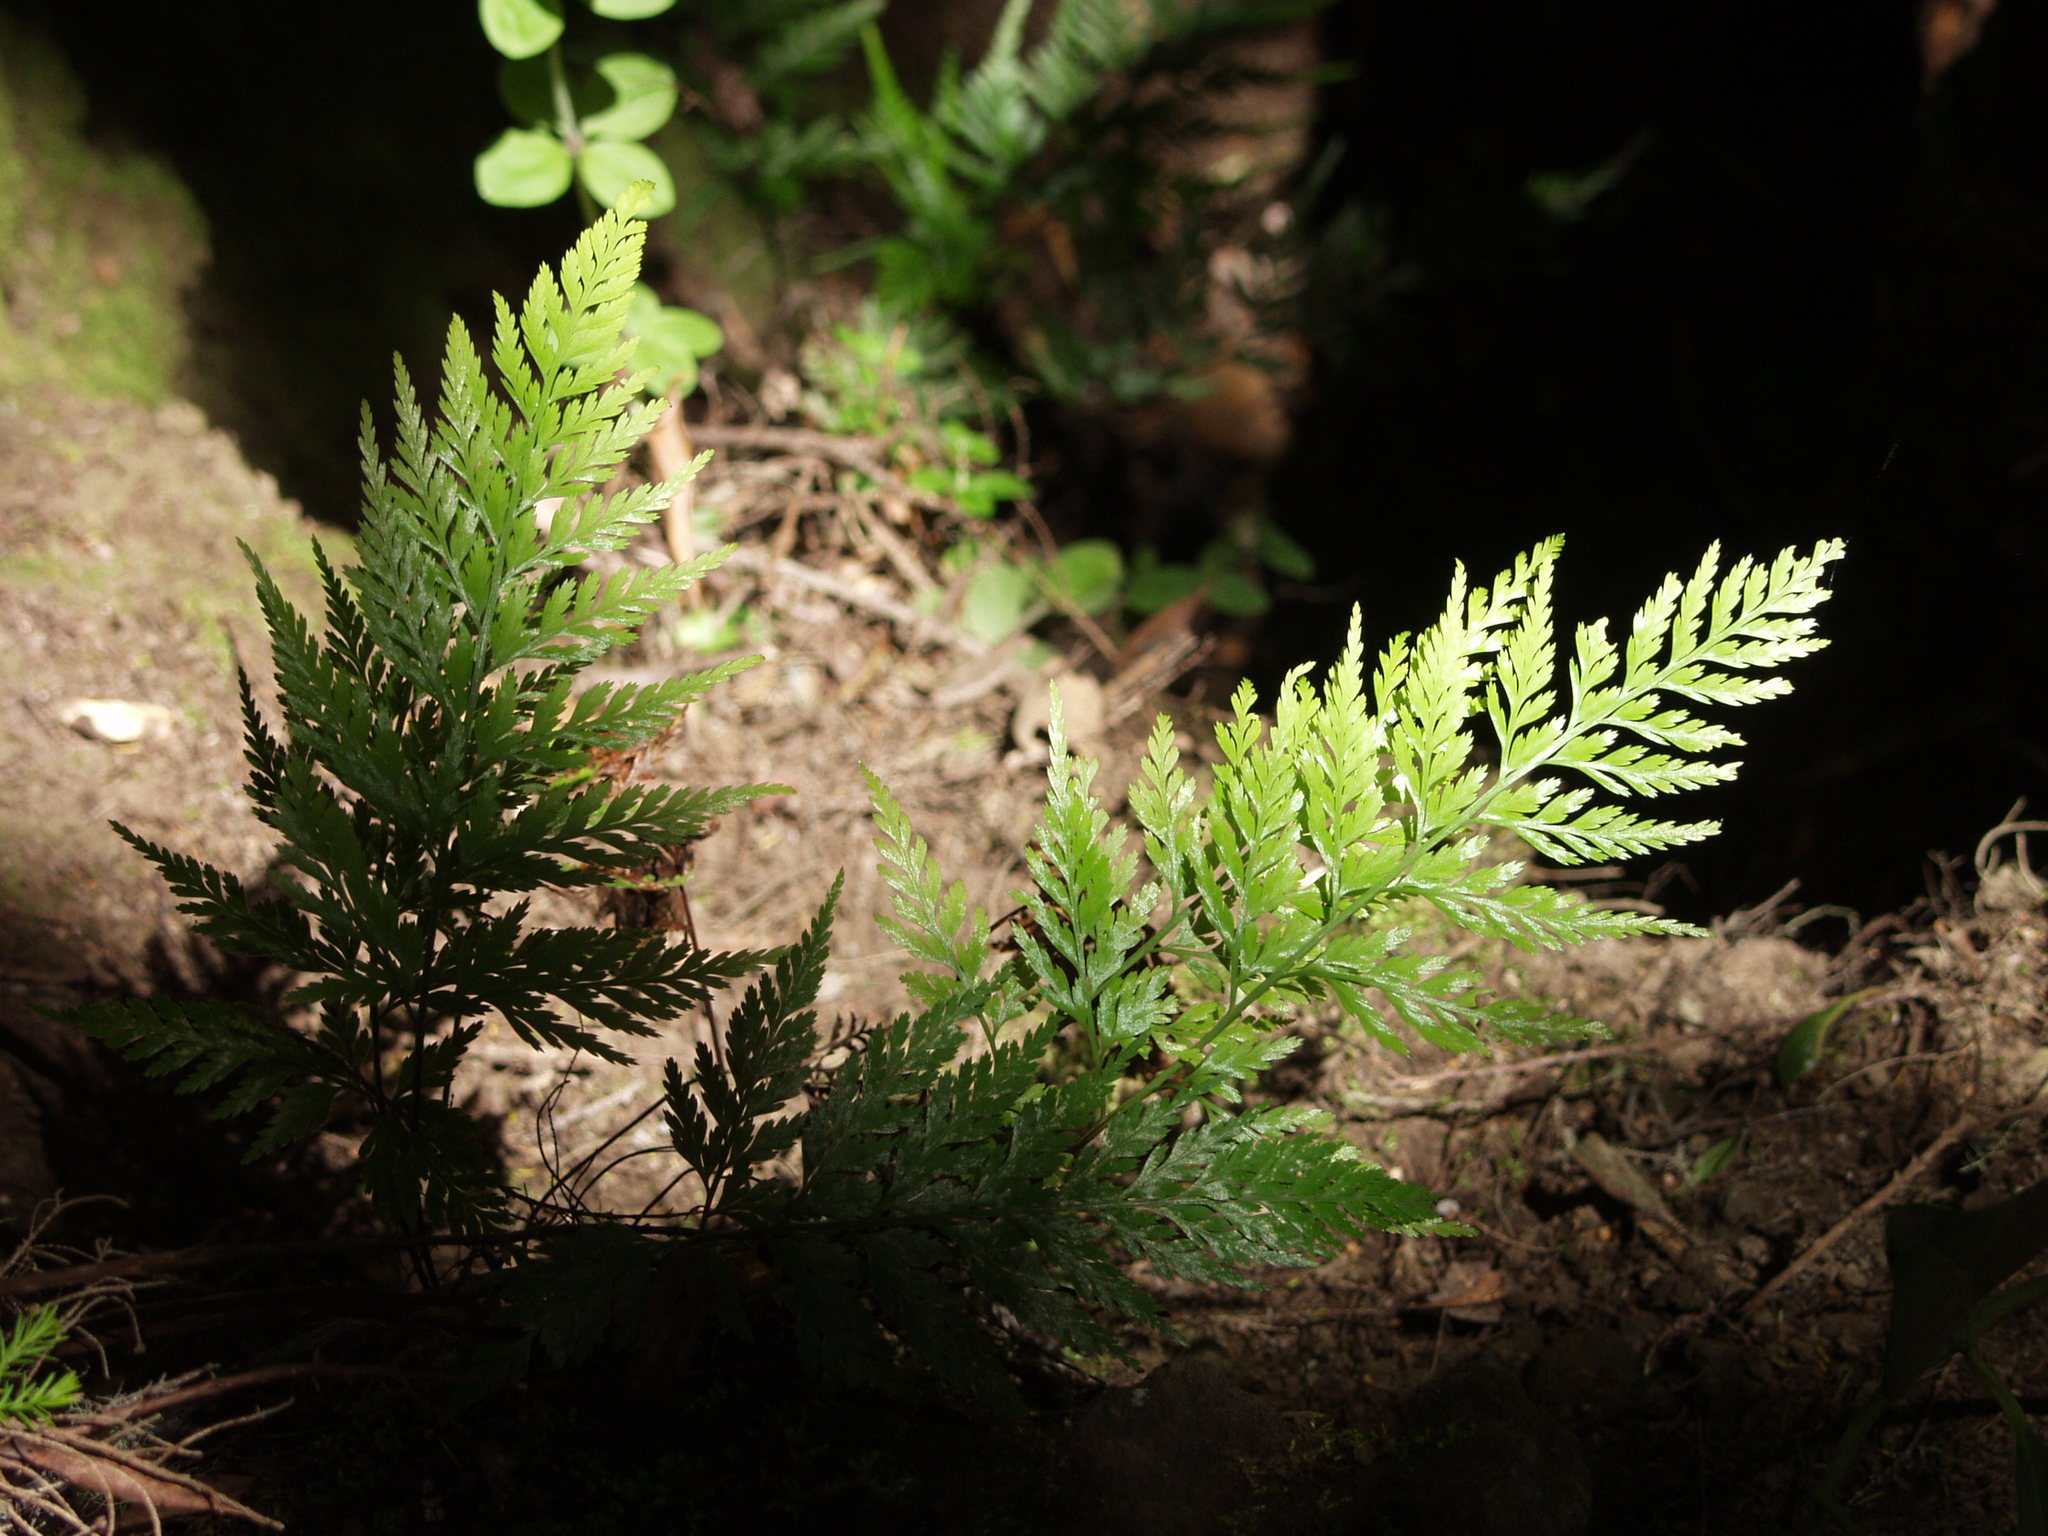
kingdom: Plantae
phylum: Tracheophyta
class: Polypodiopsida
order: Polypodiales
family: Aspleniaceae
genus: Asplenium
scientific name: Asplenium onopteris
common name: Irish spleenwort
